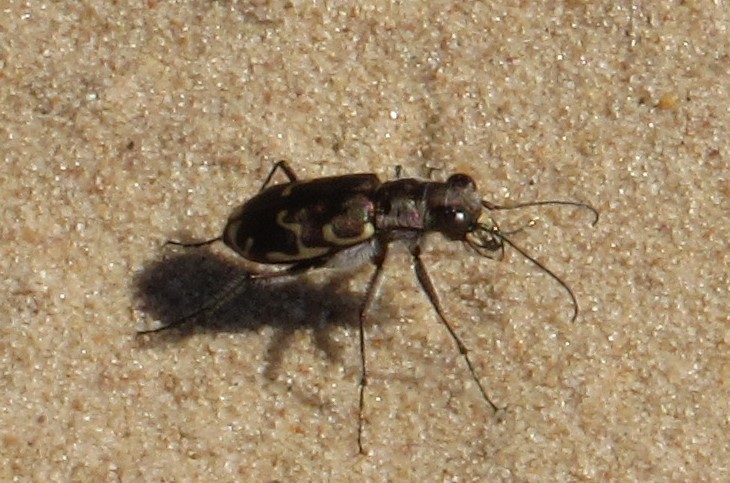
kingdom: Animalia
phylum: Arthropoda
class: Insecta
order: Coleoptera
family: Carabidae
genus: Cicindela
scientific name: Cicindela repanda
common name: Bronzed tiger beetle
